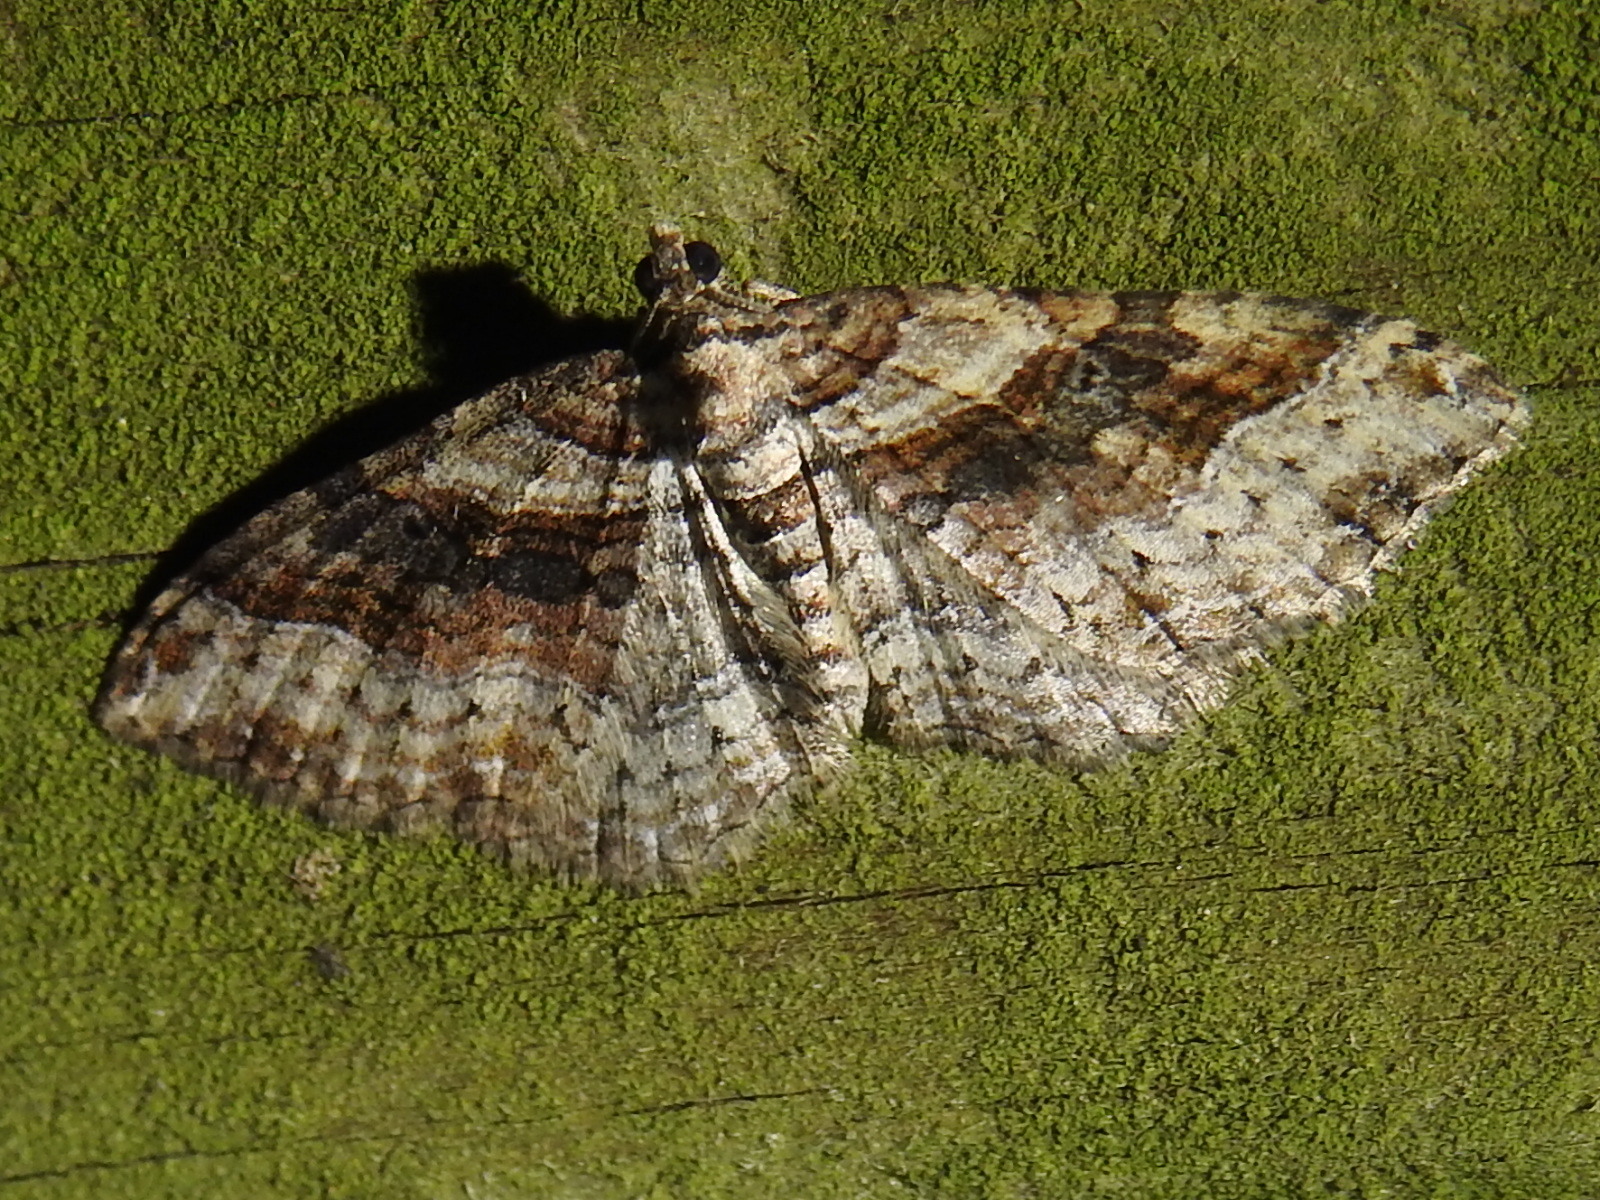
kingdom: Animalia
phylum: Arthropoda
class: Insecta
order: Lepidoptera
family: Geometridae
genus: Costaconvexa
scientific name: Costaconvexa centrostrigaria
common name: Bent-line carpet
